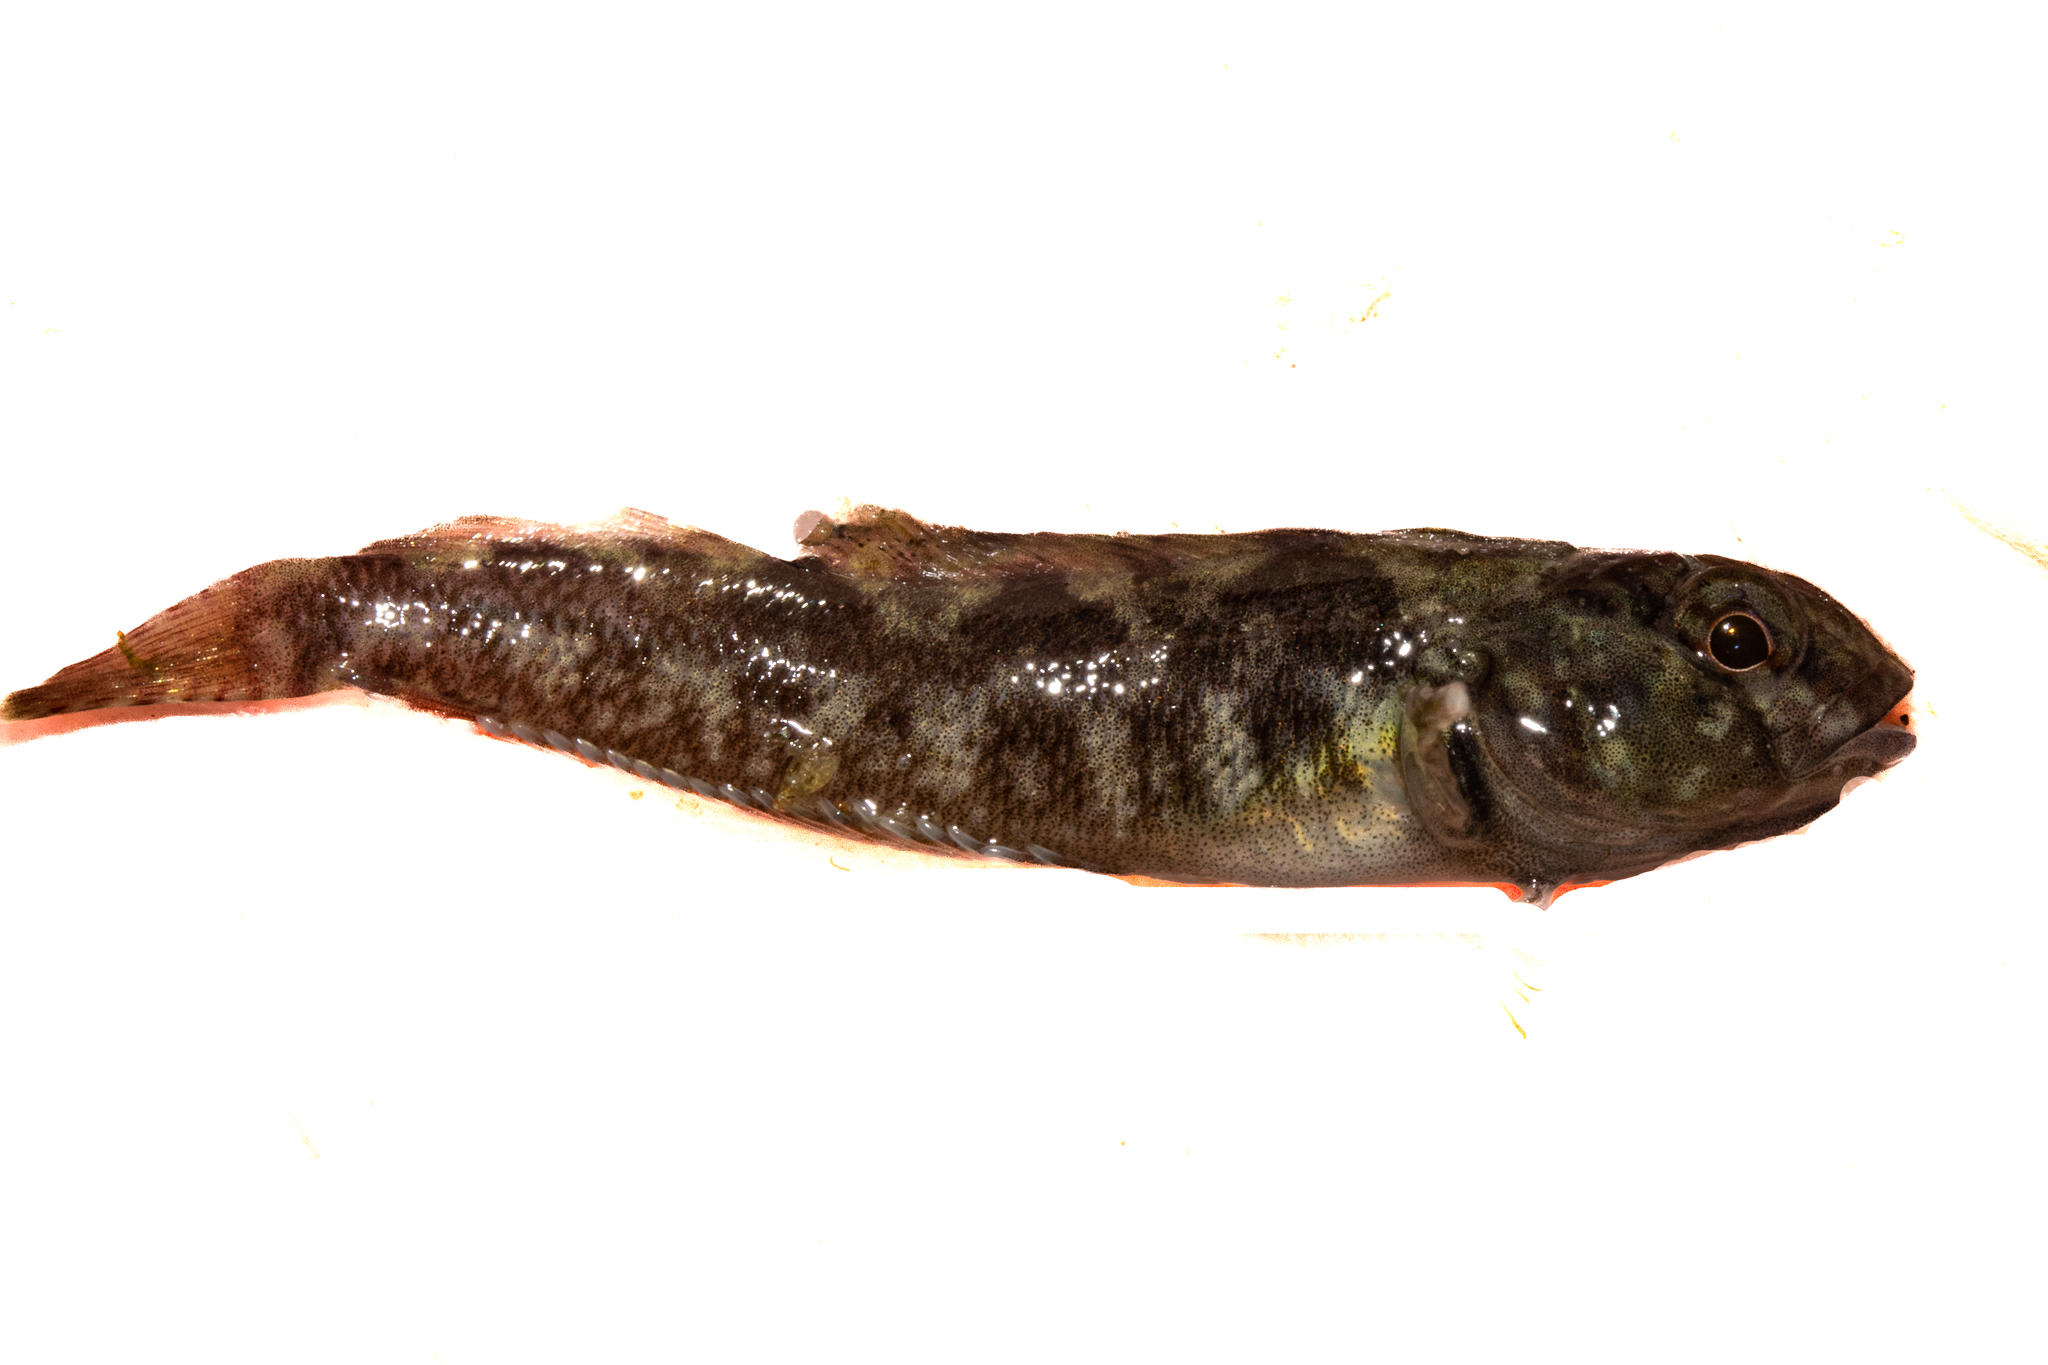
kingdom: Animalia
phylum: Chordata
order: Perciformes
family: Tripterygiidae
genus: Forsterygion
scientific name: Forsterygion gymnotum
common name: Multifid-tentacled robust triplefin
